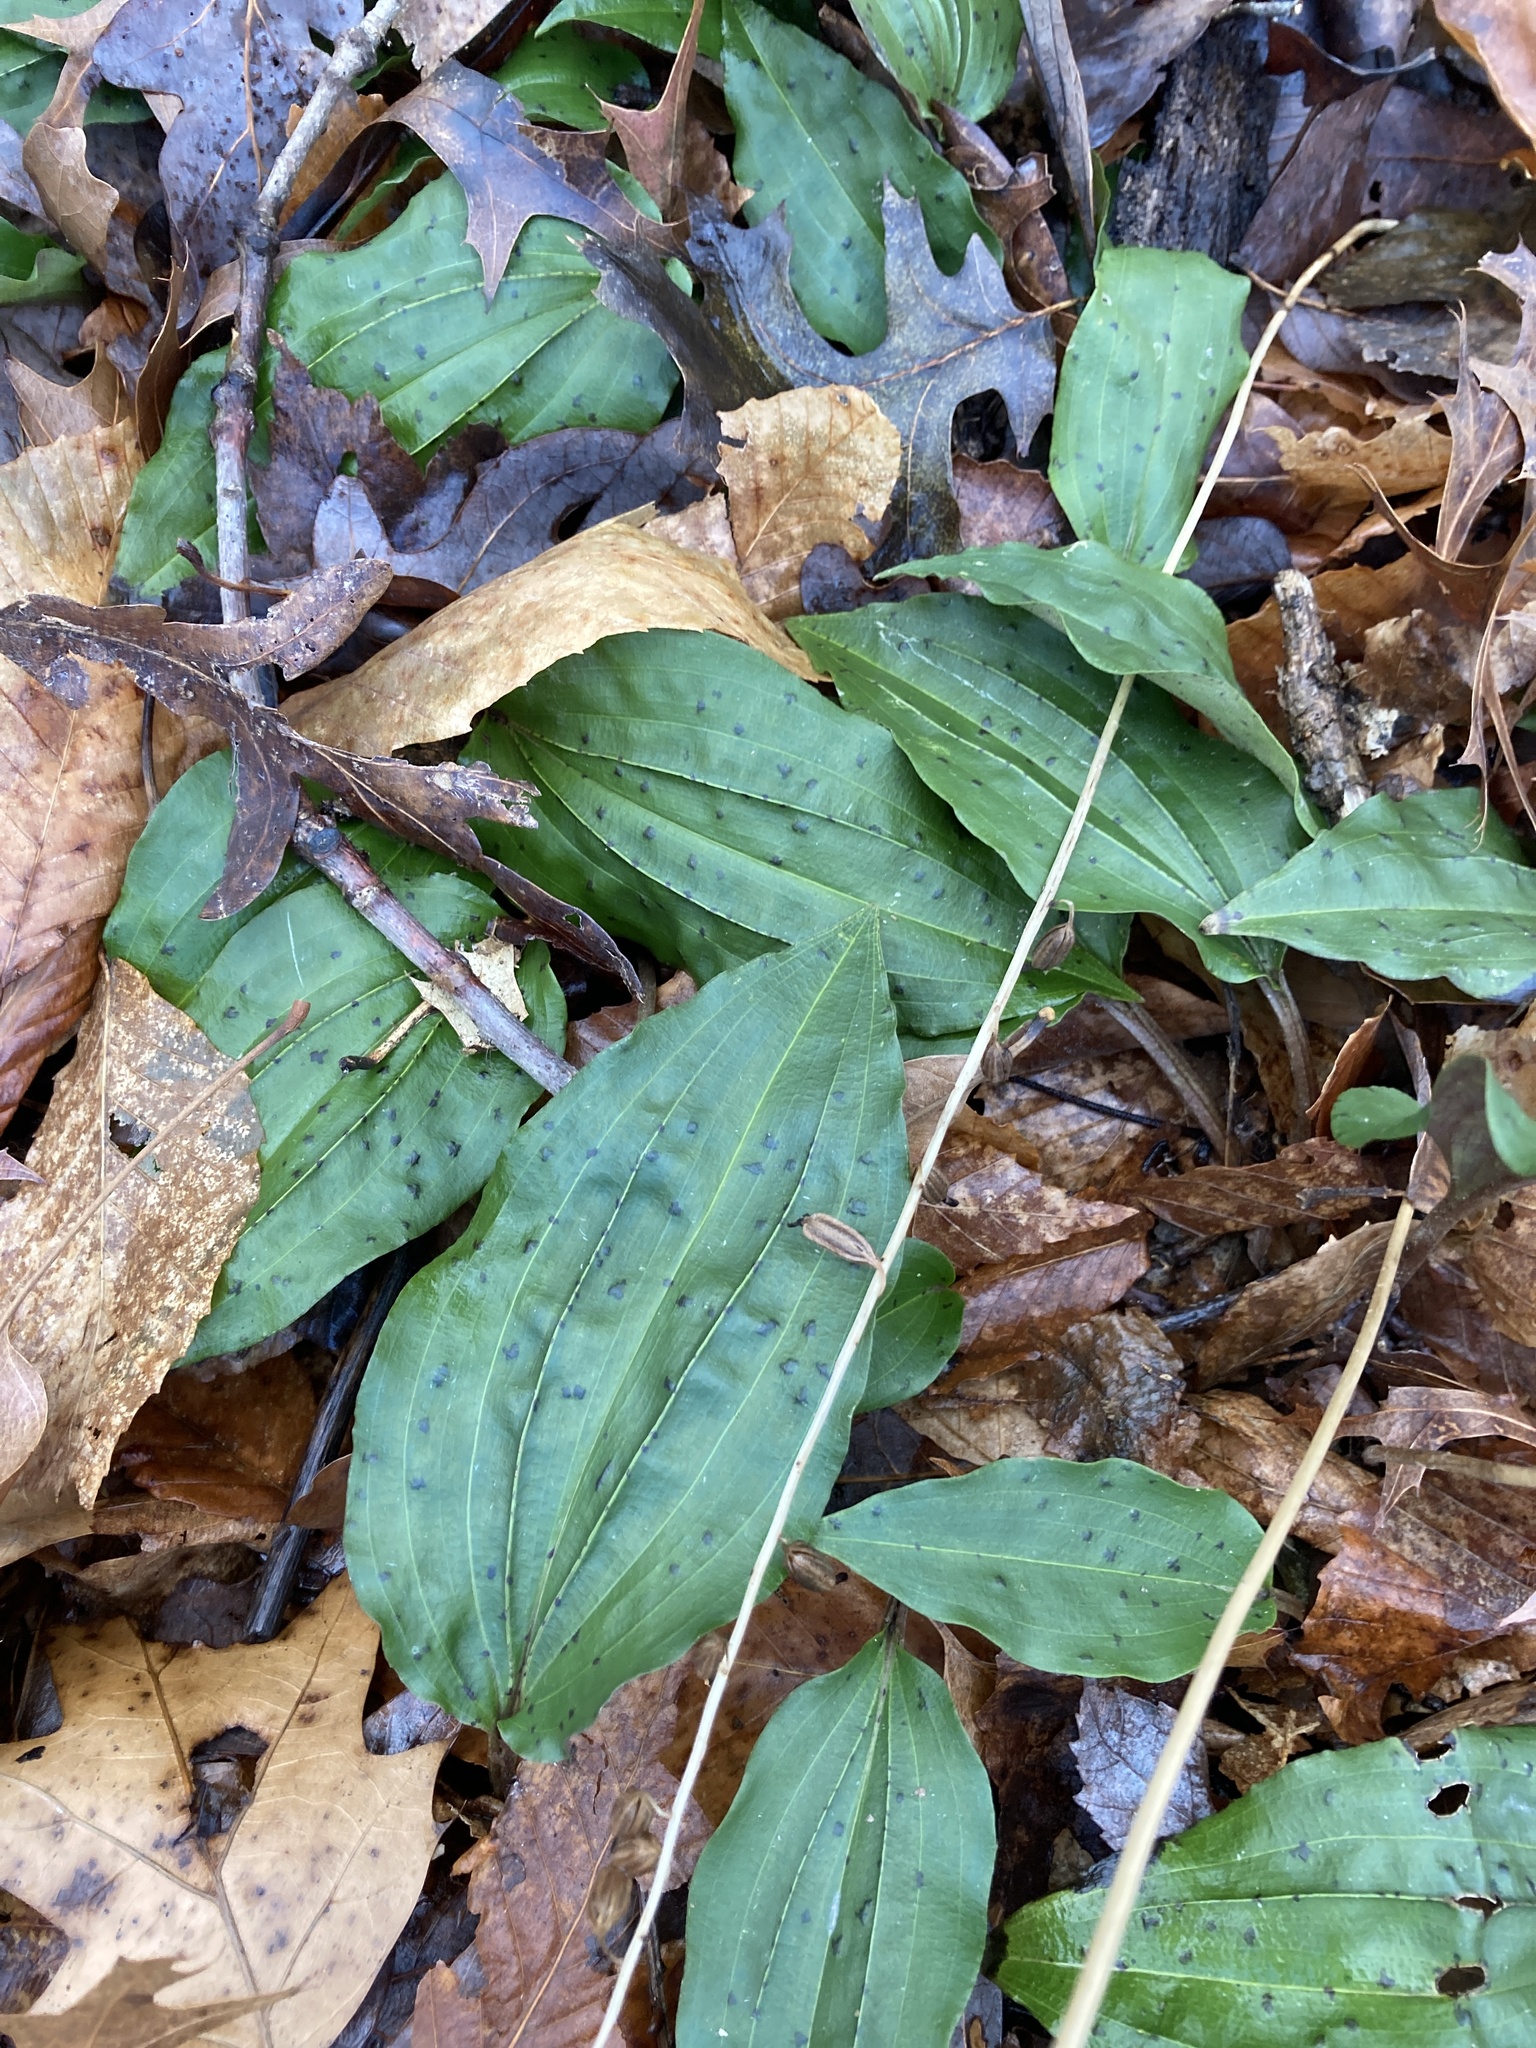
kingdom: Plantae
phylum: Tracheophyta
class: Liliopsida
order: Asparagales
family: Orchidaceae
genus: Tipularia
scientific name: Tipularia discolor
